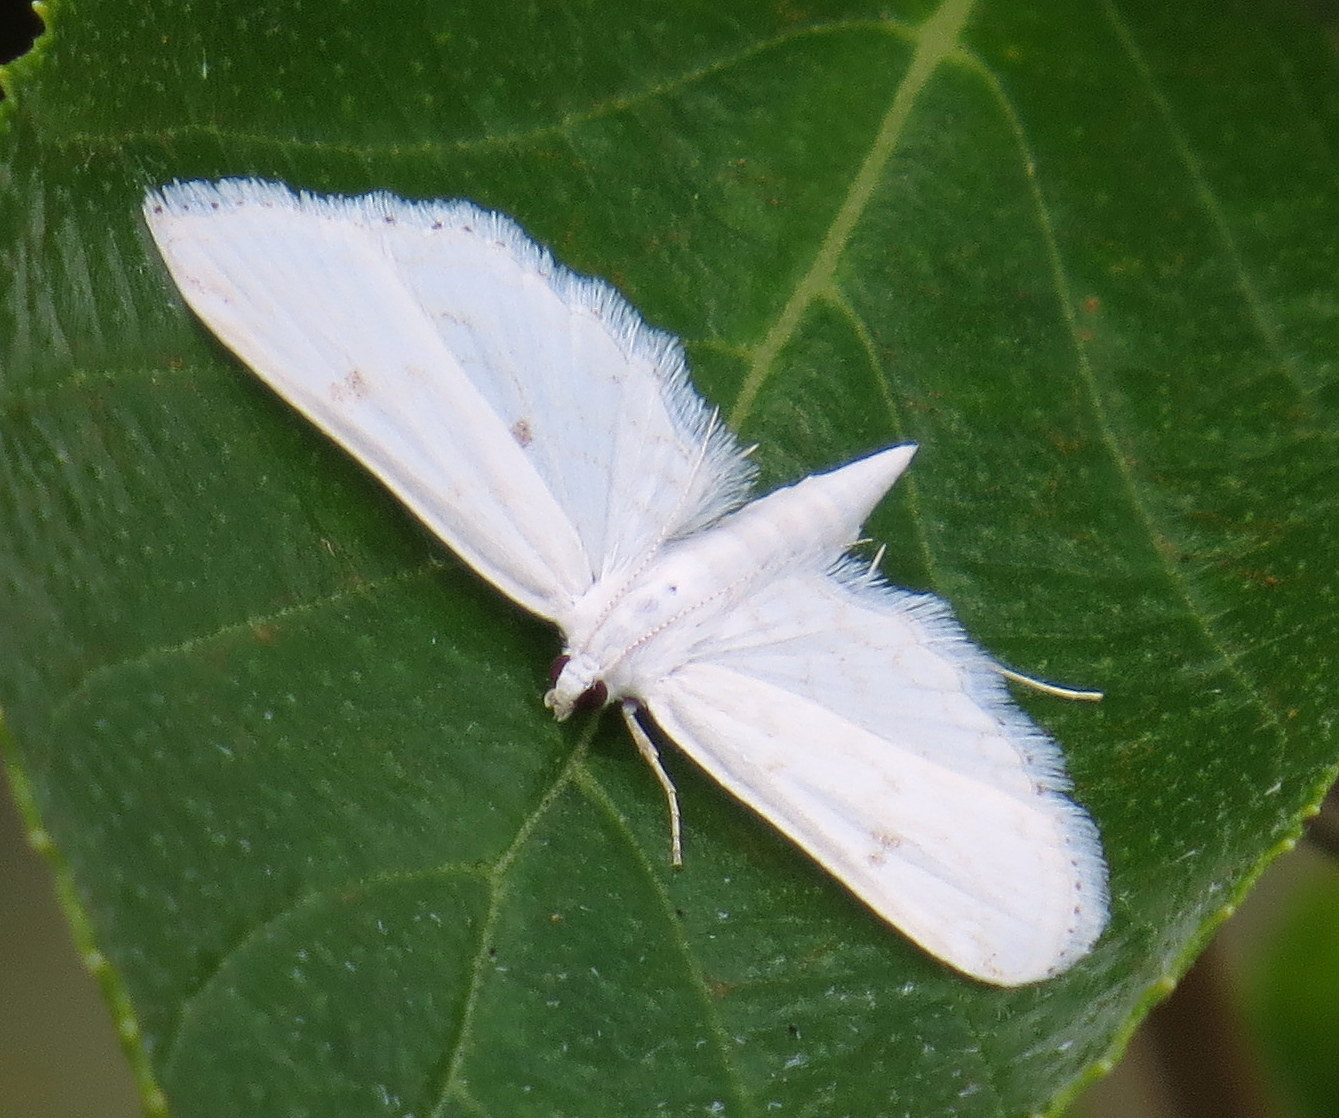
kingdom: Animalia
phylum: Arthropoda
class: Insecta
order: Lepidoptera
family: Crambidae
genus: Parapoynx
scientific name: Parapoynx allionealis
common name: Bladderwort casemaker
